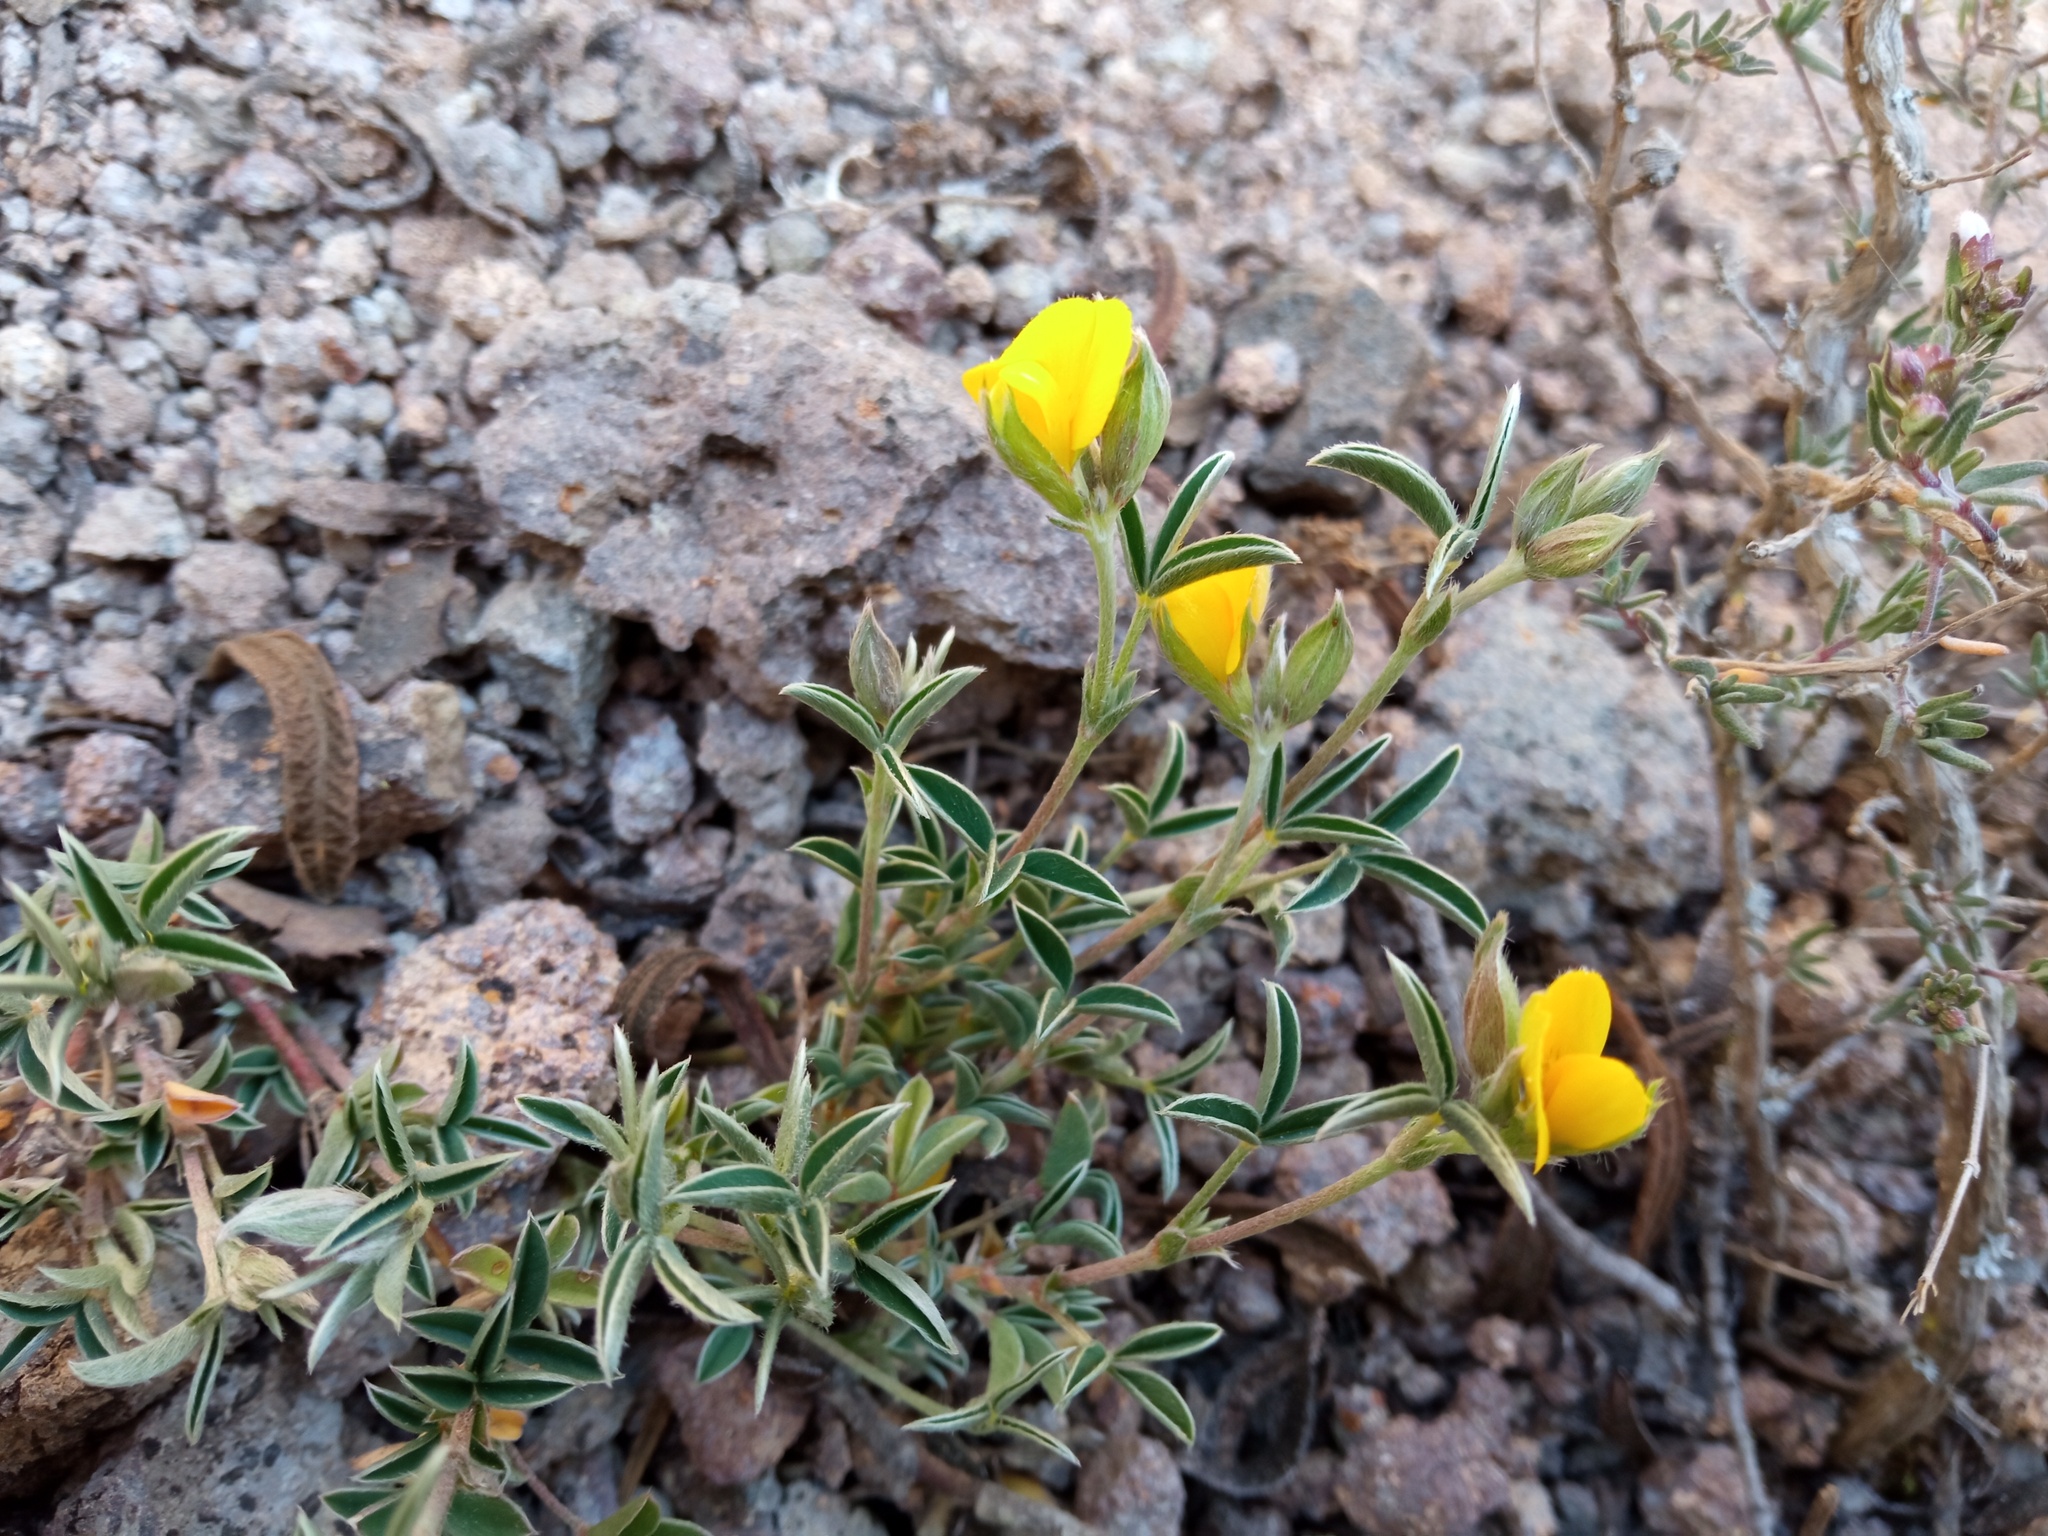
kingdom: Plantae
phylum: Tracheophyta
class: Magnoliopsida
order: Fabales
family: Fabaceae
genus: Argyrolobium
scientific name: Argyrolobium zanonii
